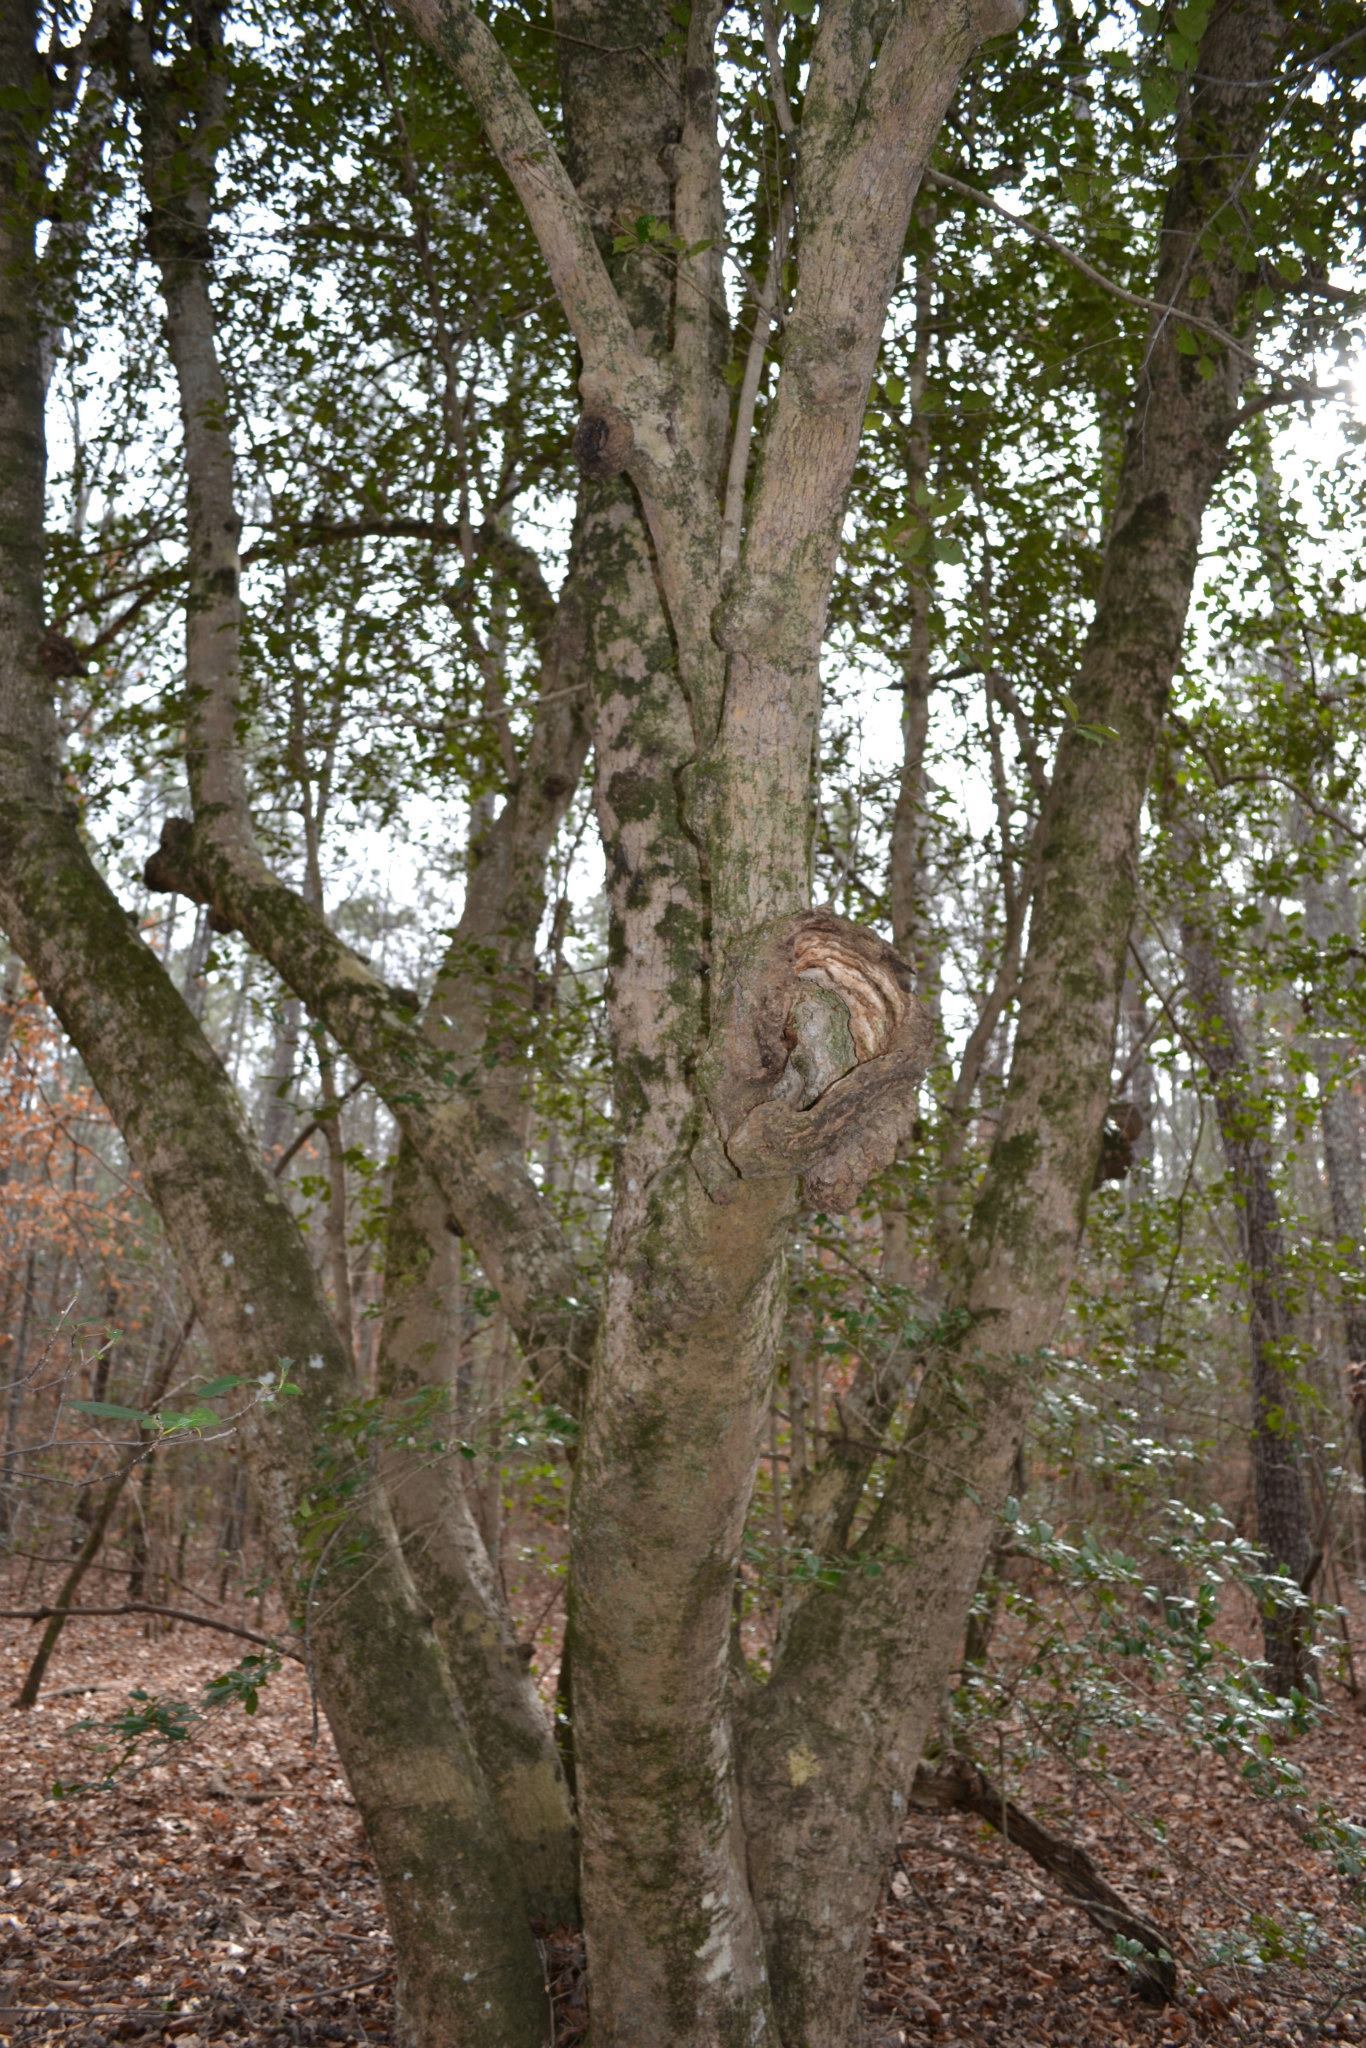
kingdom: Plantae
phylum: Tracheophyta
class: Magnoliopsida
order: Aquifoliales
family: Aquifoliaceae
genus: Ilex
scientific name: Ilex opaca
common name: American holly
